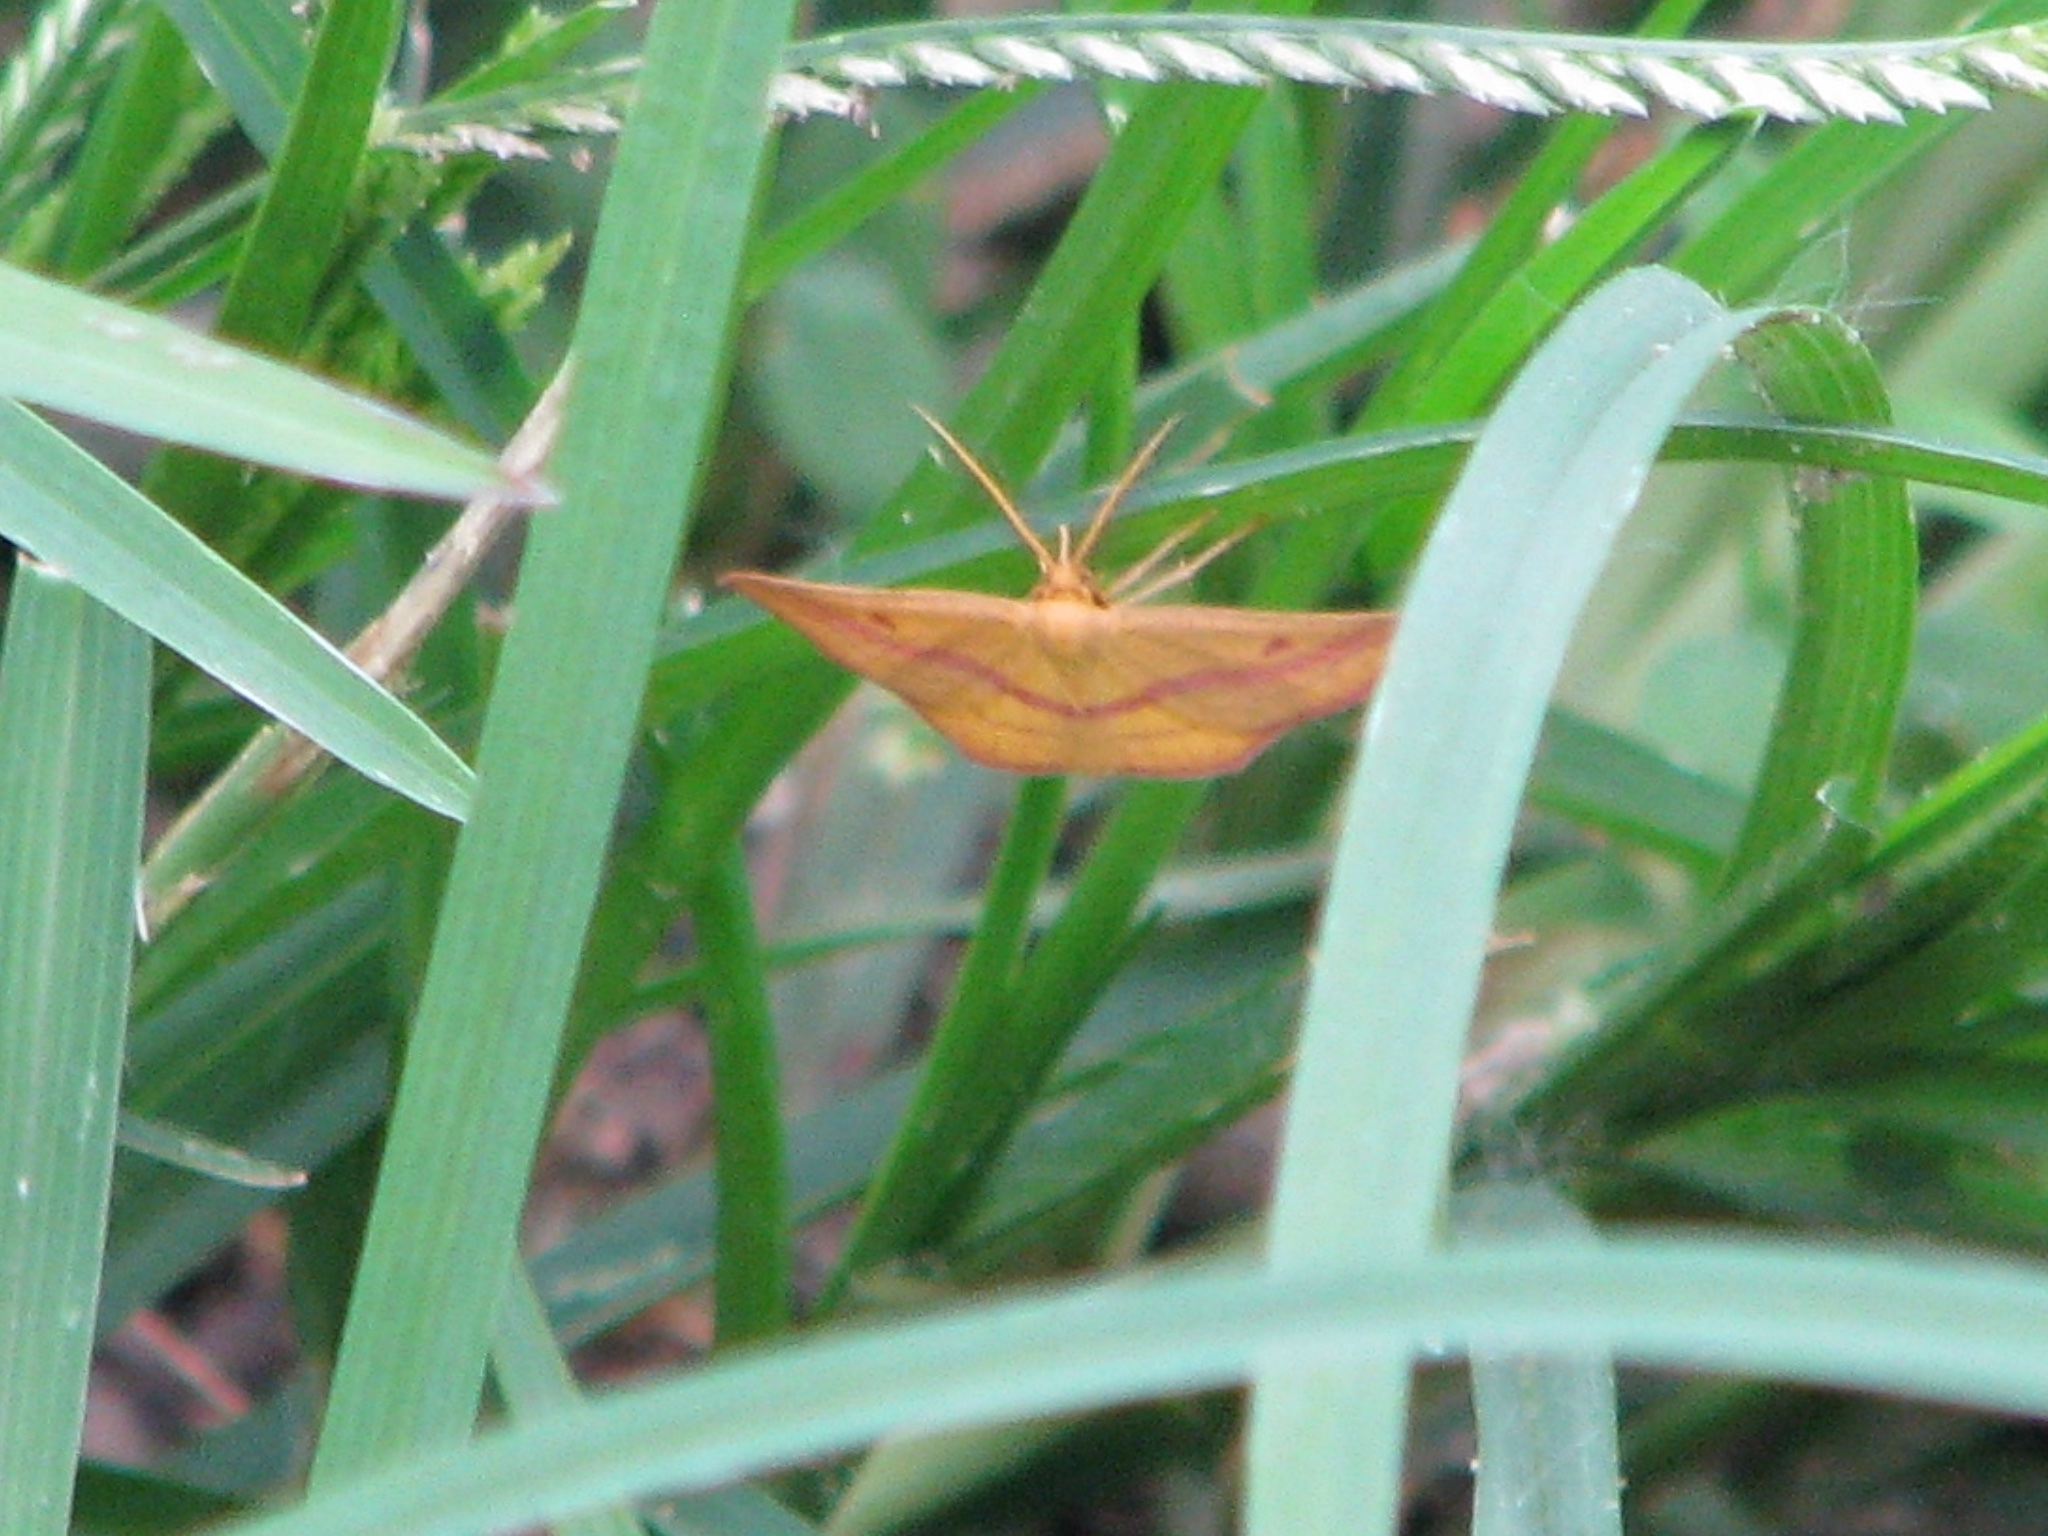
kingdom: Animalia
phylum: Arthropoda
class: Insecta
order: Lepidoptera
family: Geometridae
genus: Haematopis
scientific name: Haematopis grataria
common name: Chickweed geometer
